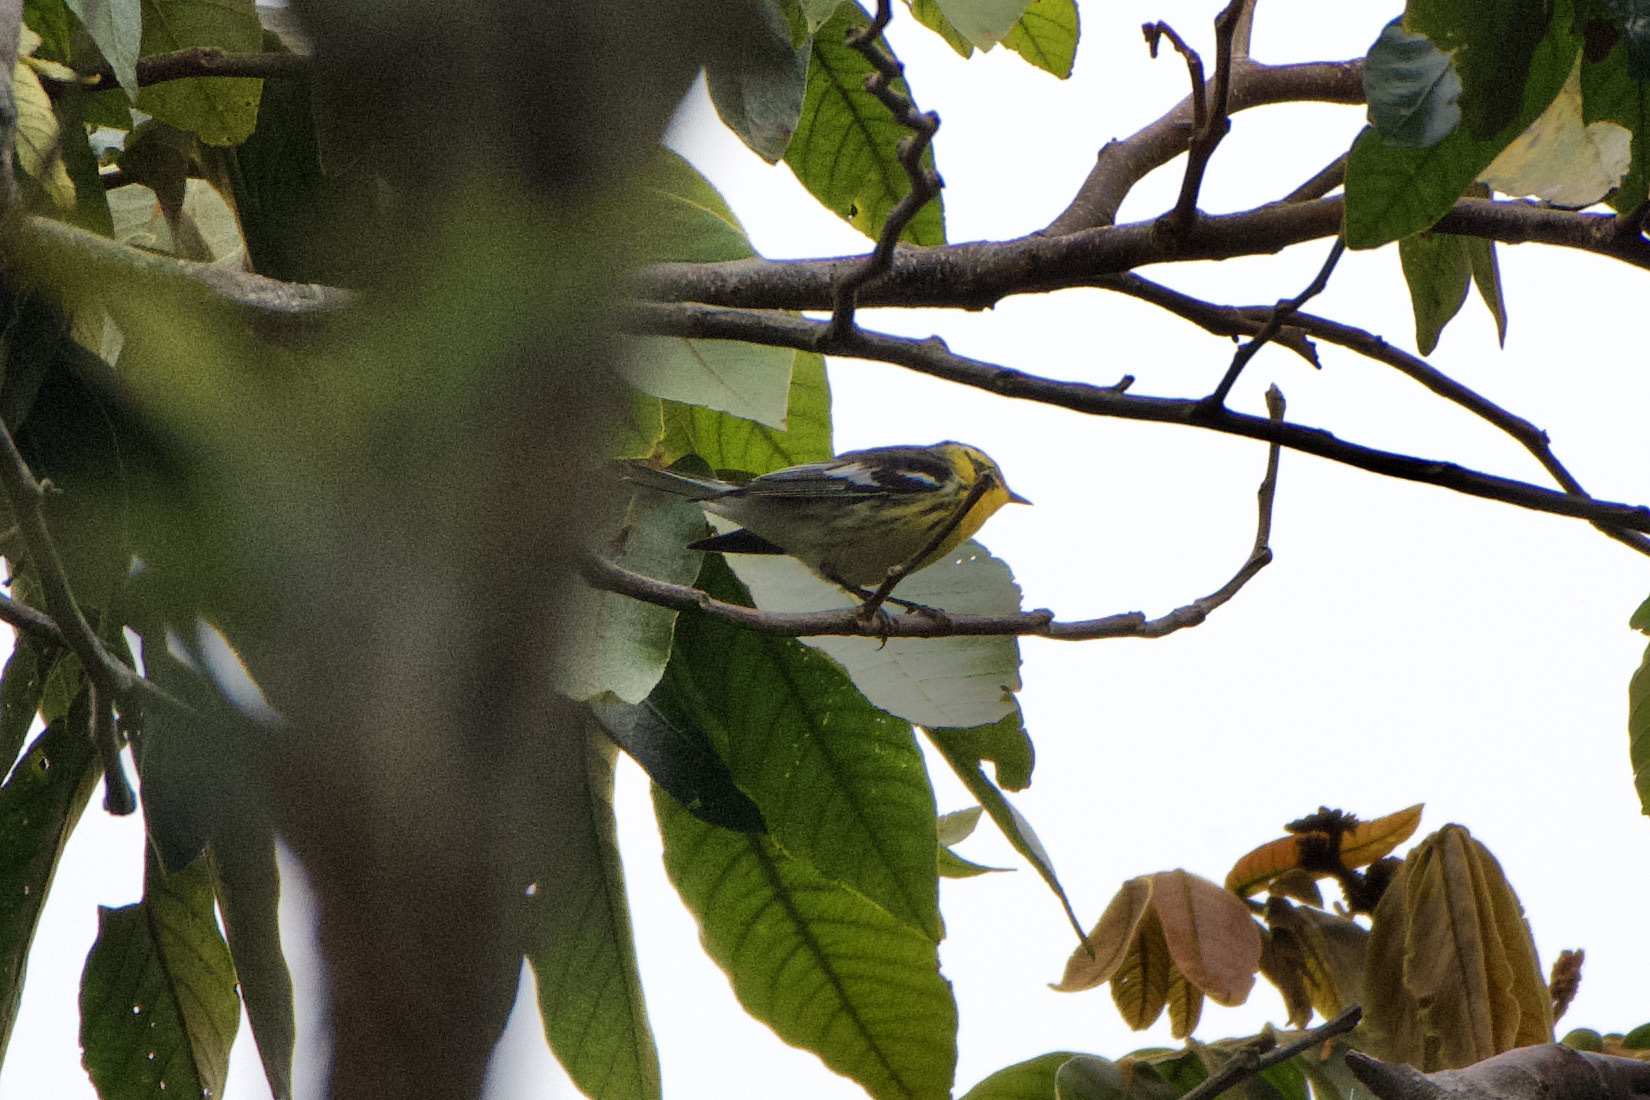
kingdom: Animalia
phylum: Chordata
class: Aves
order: Passeriformes
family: Parulidae
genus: Setophaga
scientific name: Setophaga fusca
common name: Blackburnian warbler
